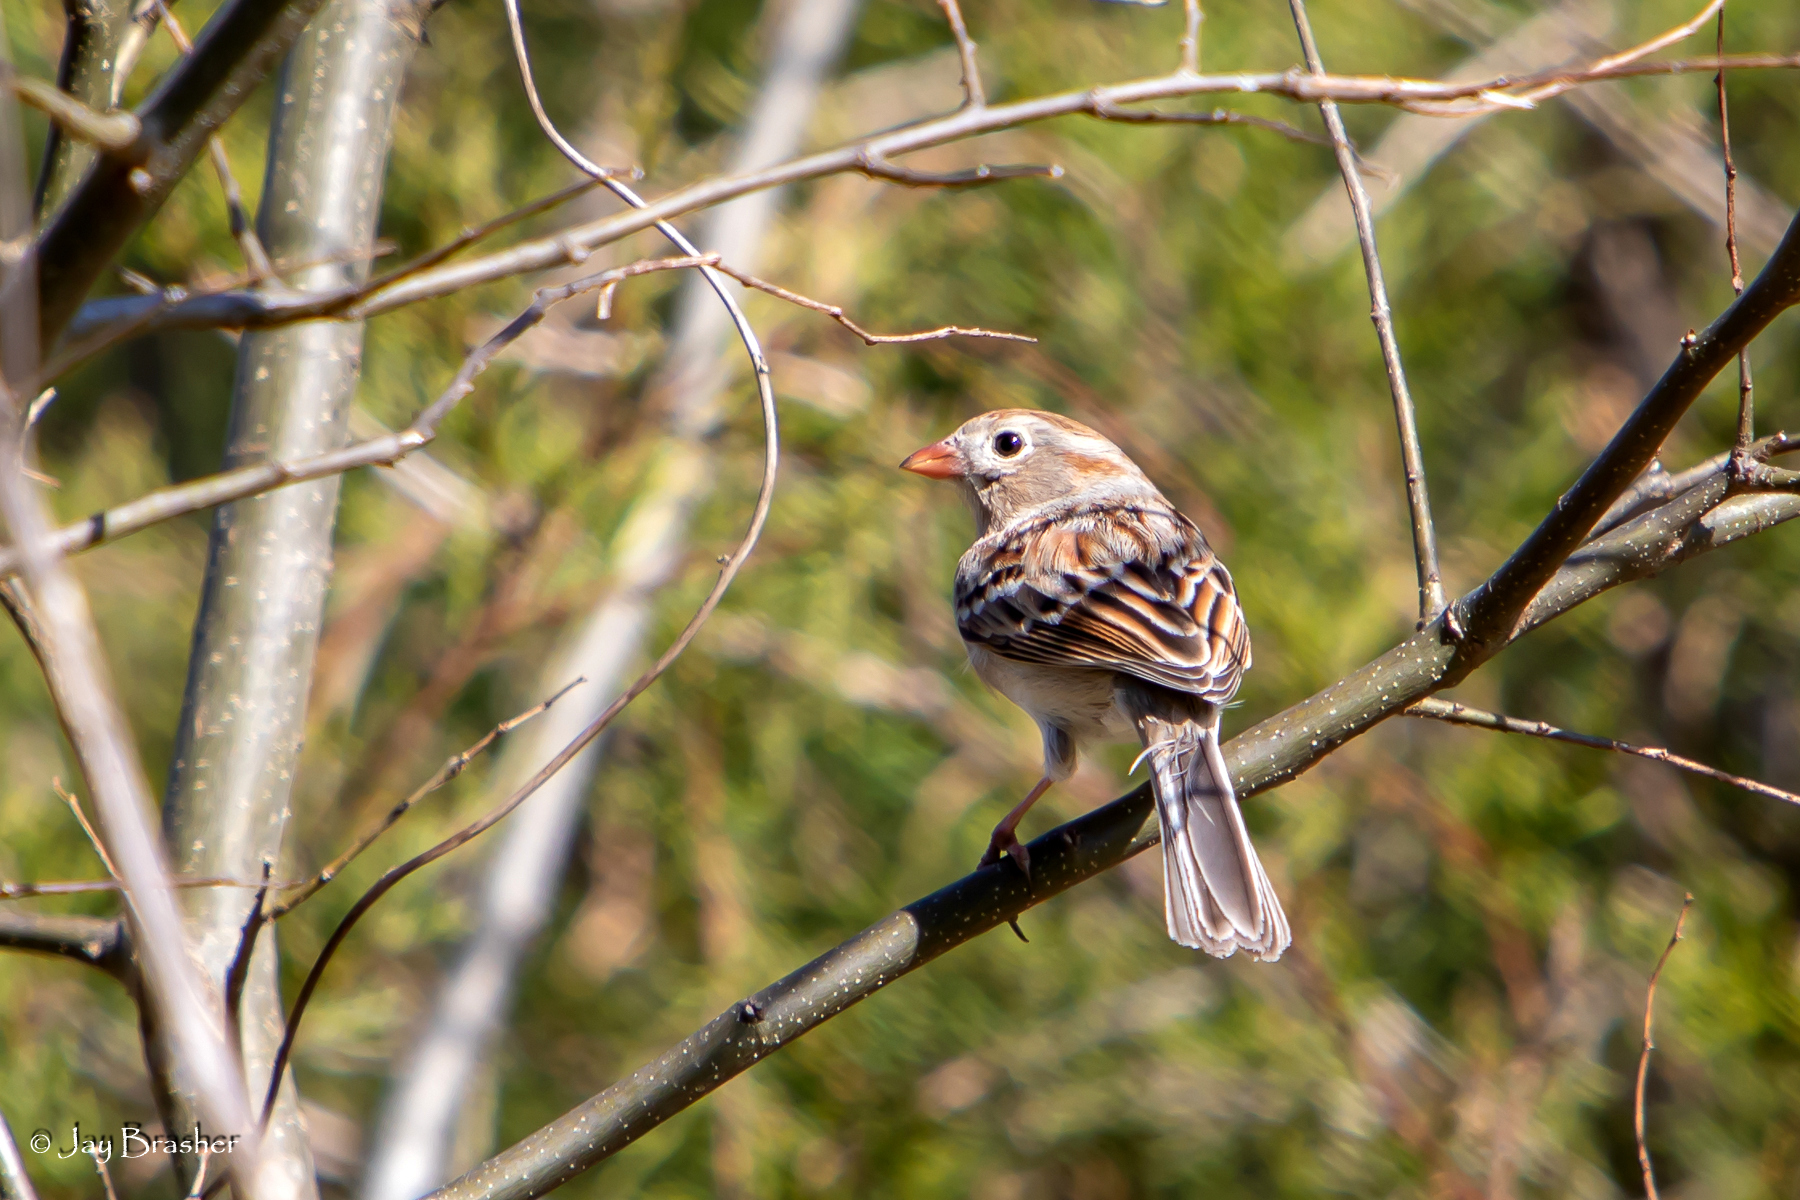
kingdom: Animalia
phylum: Chordata
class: Aves
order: Passeriformes
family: Passerellidae
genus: Spizella
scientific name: Spizella pusilla
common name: Field sparrow
